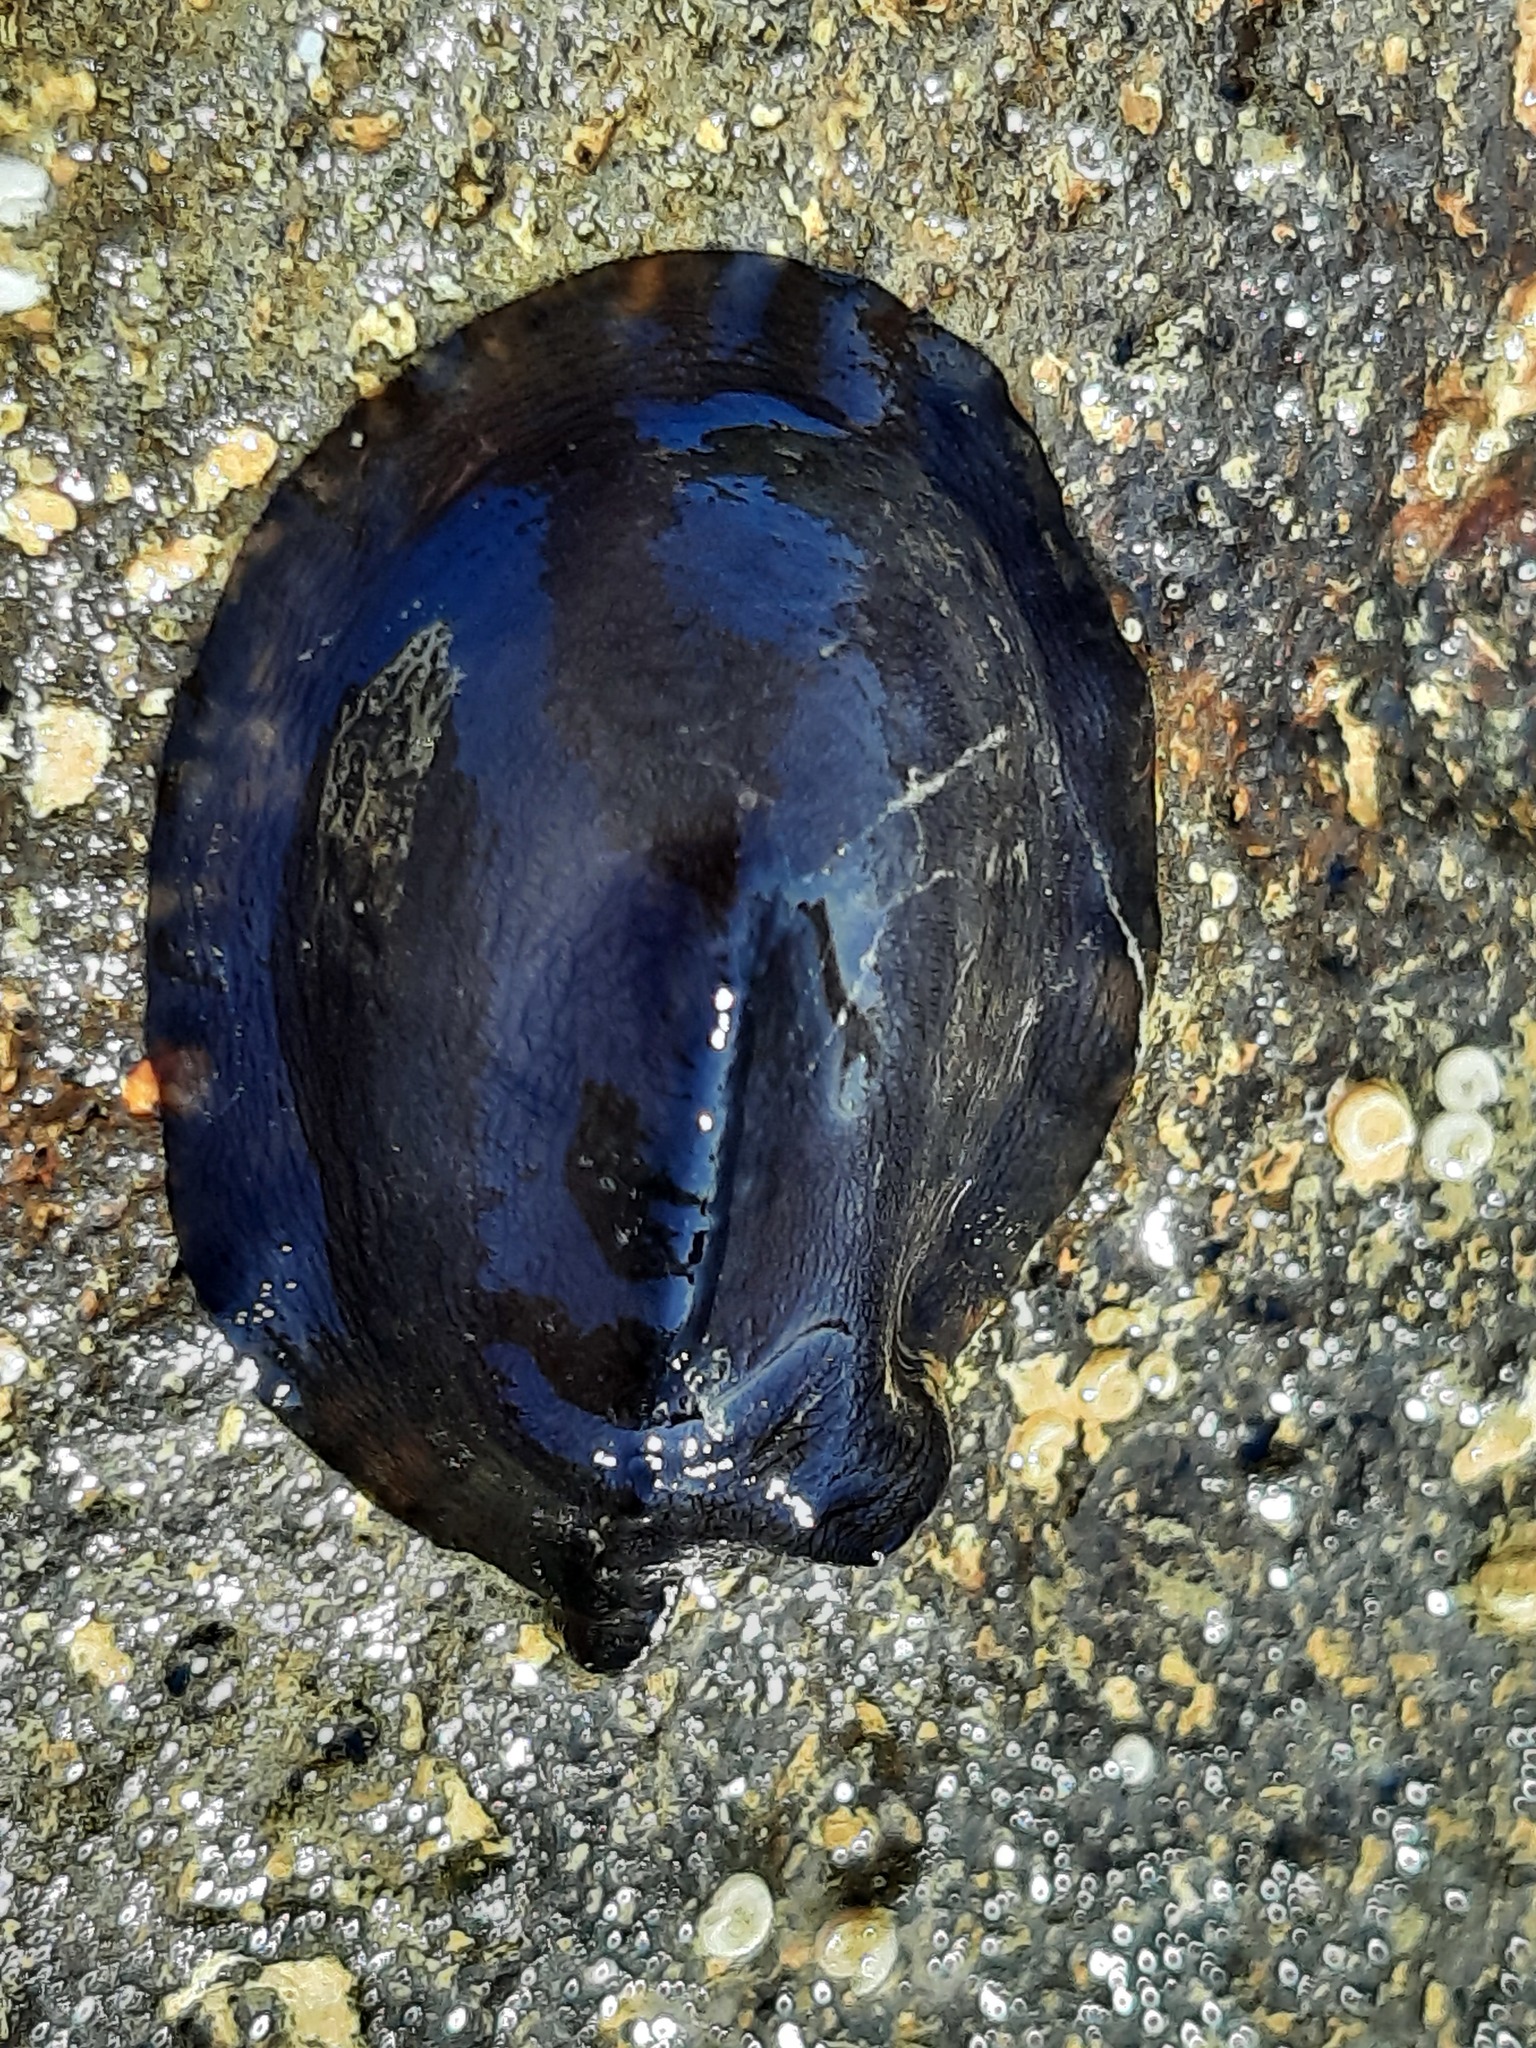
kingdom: Animalia
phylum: Mollusca
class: Gastropoda
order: Lepetellida
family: Fissurellidae
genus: Scutus
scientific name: Scutus breviculus
